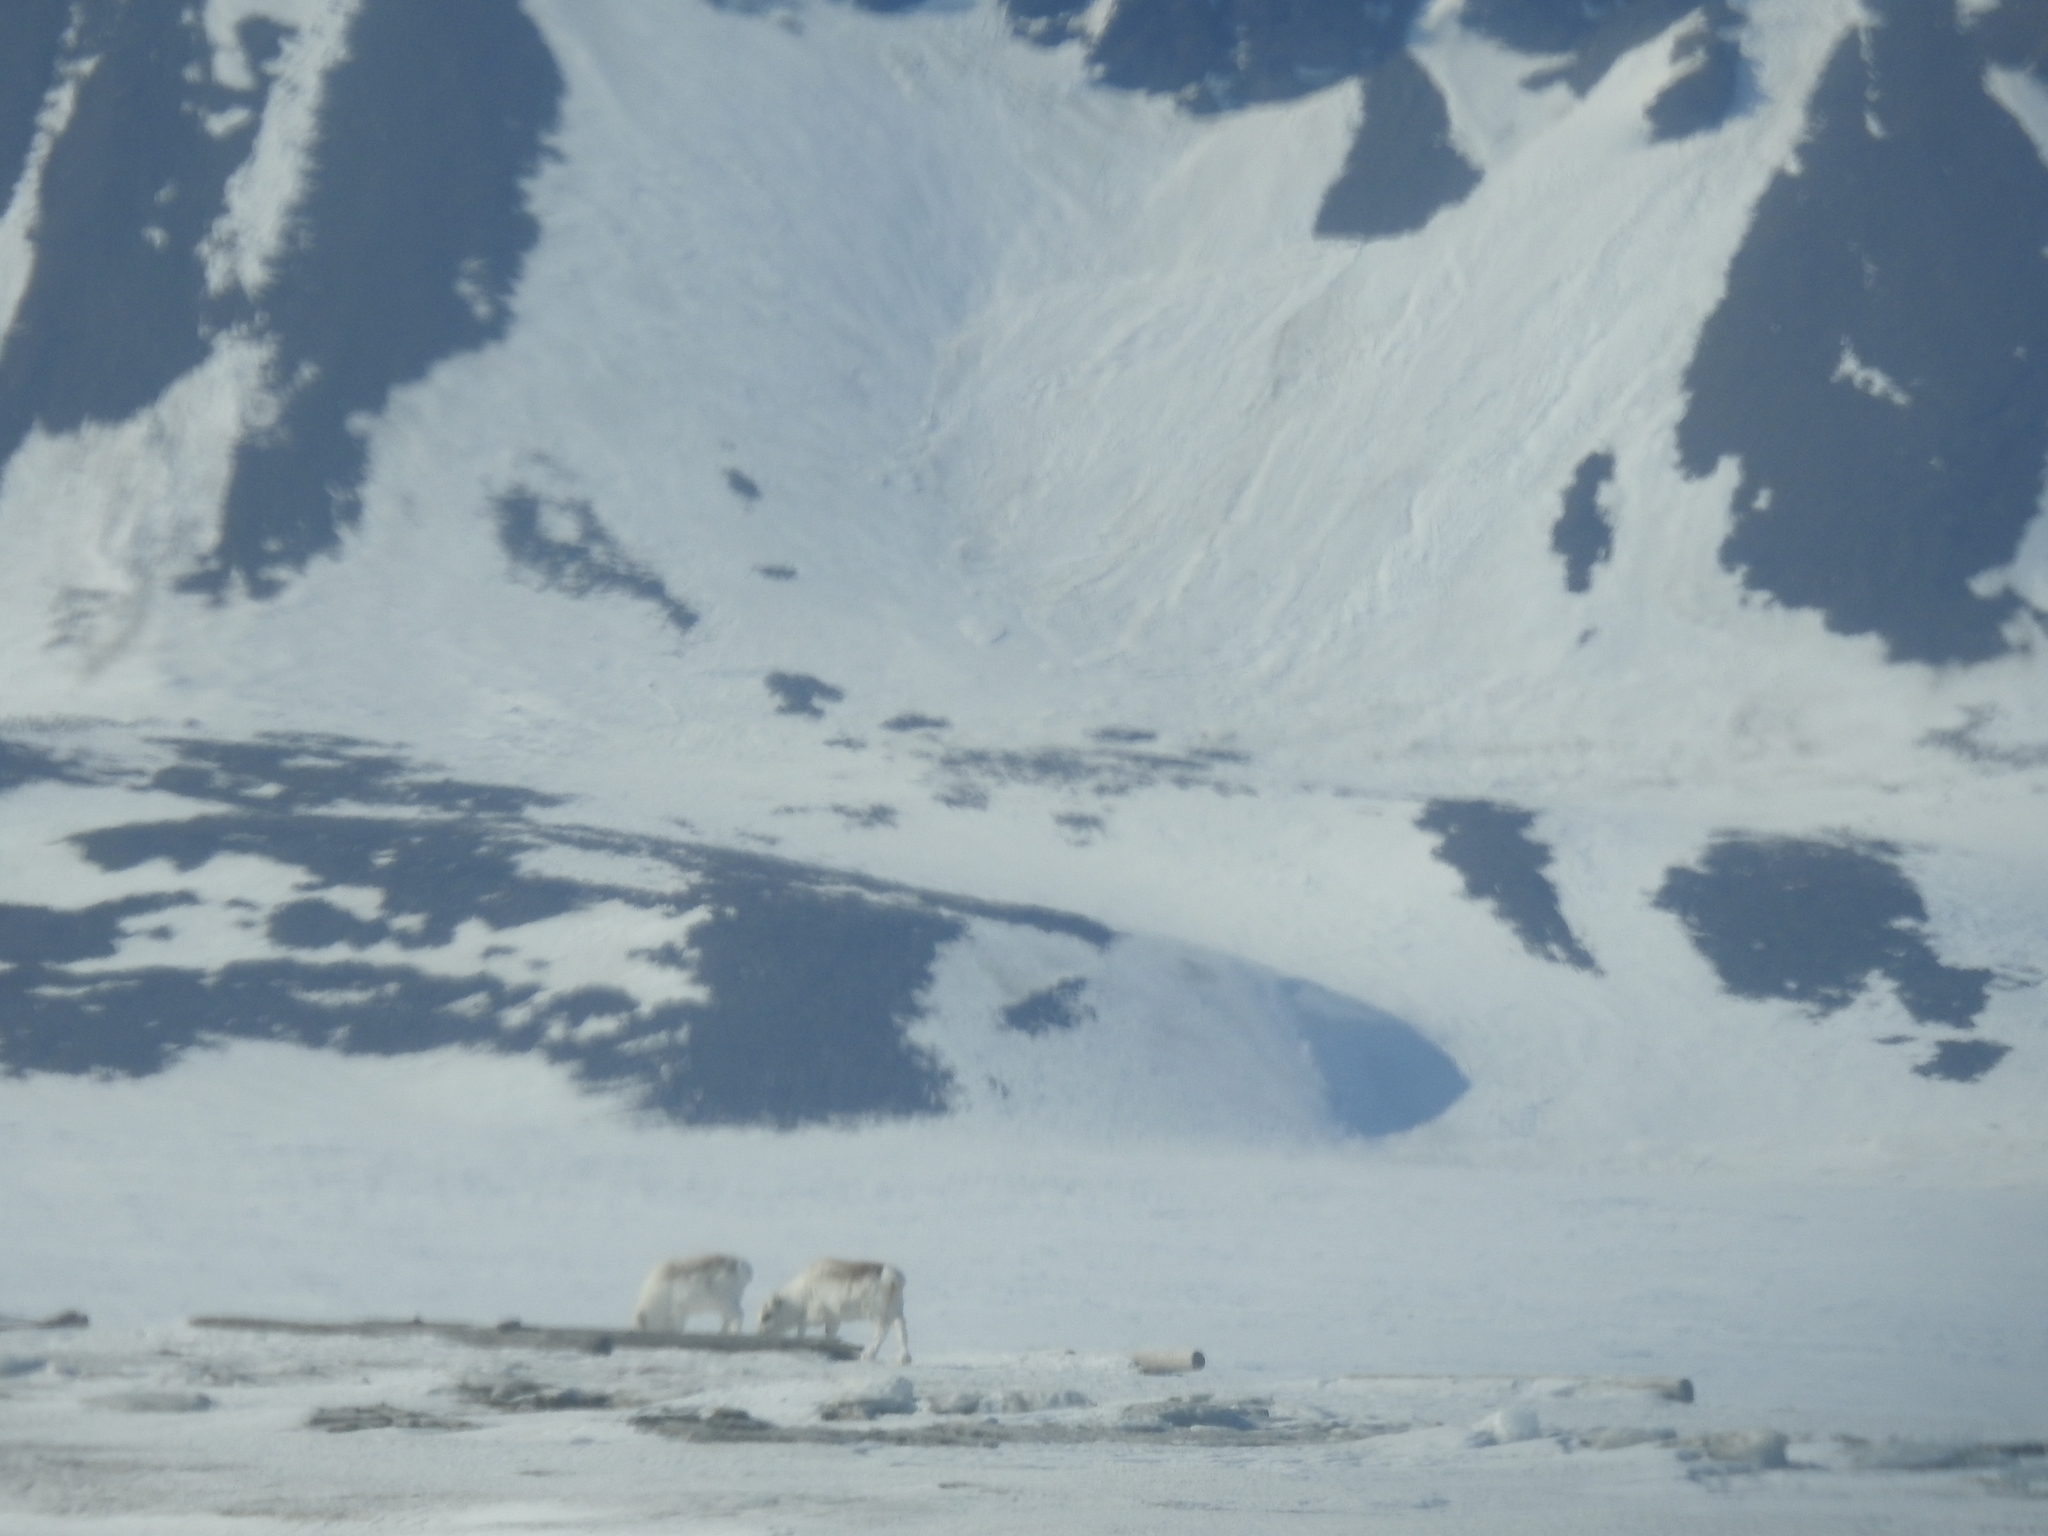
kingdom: Animalia
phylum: Chordata
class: Mammalia
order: Artiodactyla
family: Cervidae
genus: Rangifer
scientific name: Rangifer tarandus
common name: Reindeer
